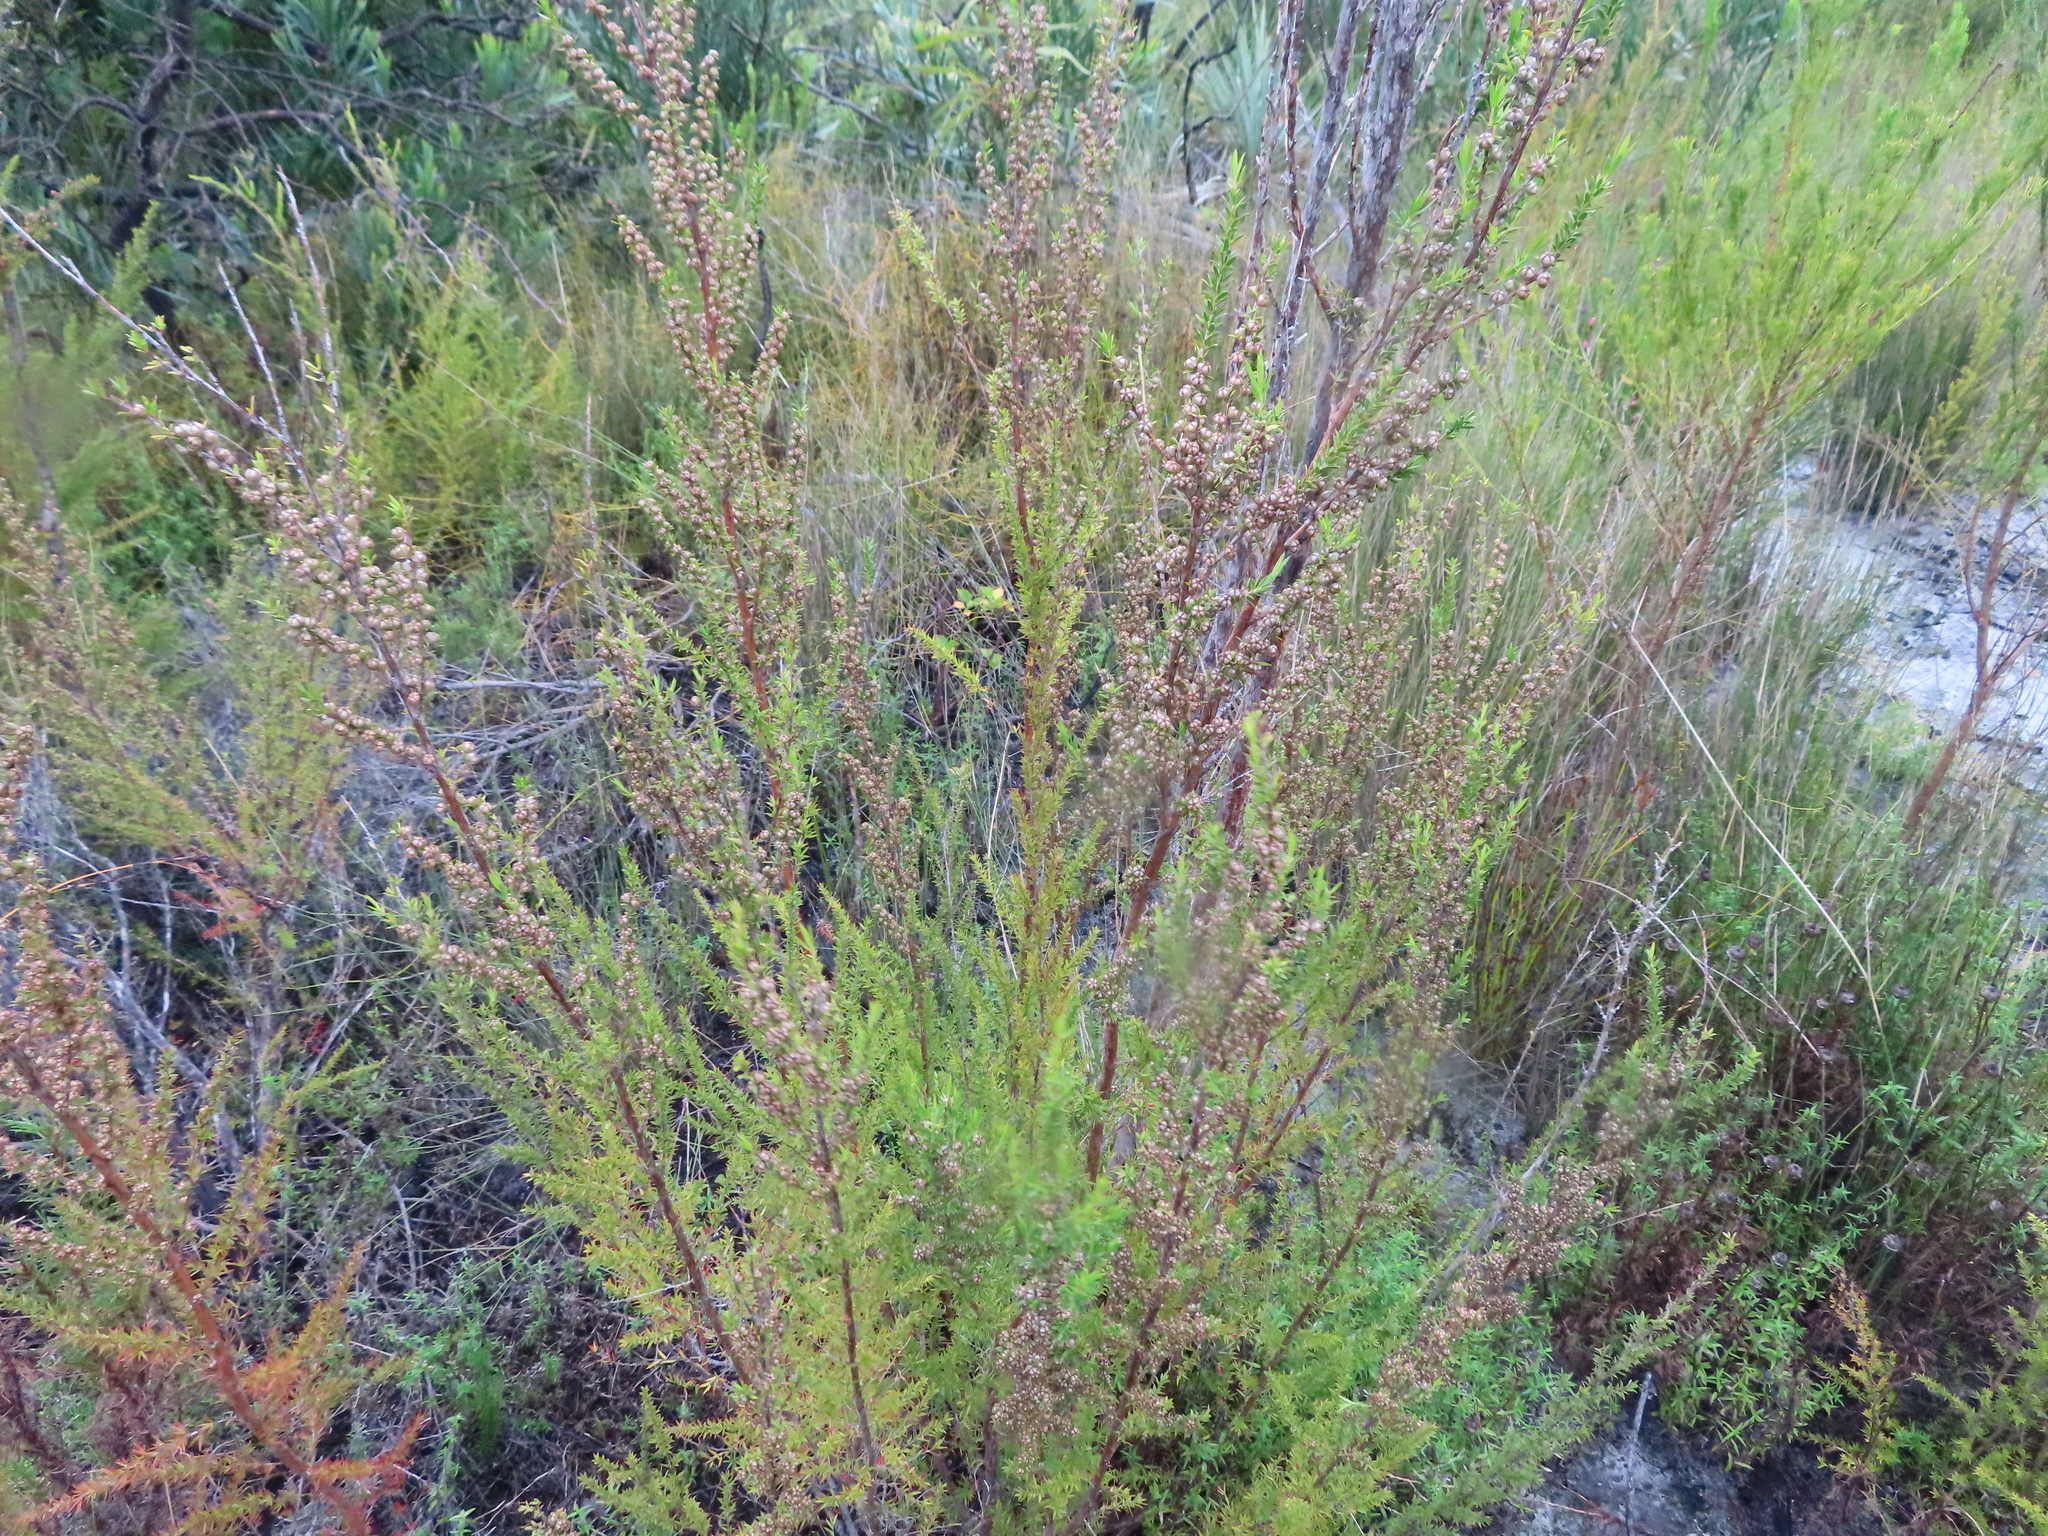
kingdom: Plantae
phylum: Tracheophyta
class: Magnoliopsida
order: Myrtales
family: Myrtaceae
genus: Leptospermum
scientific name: Leptospermum continentale
